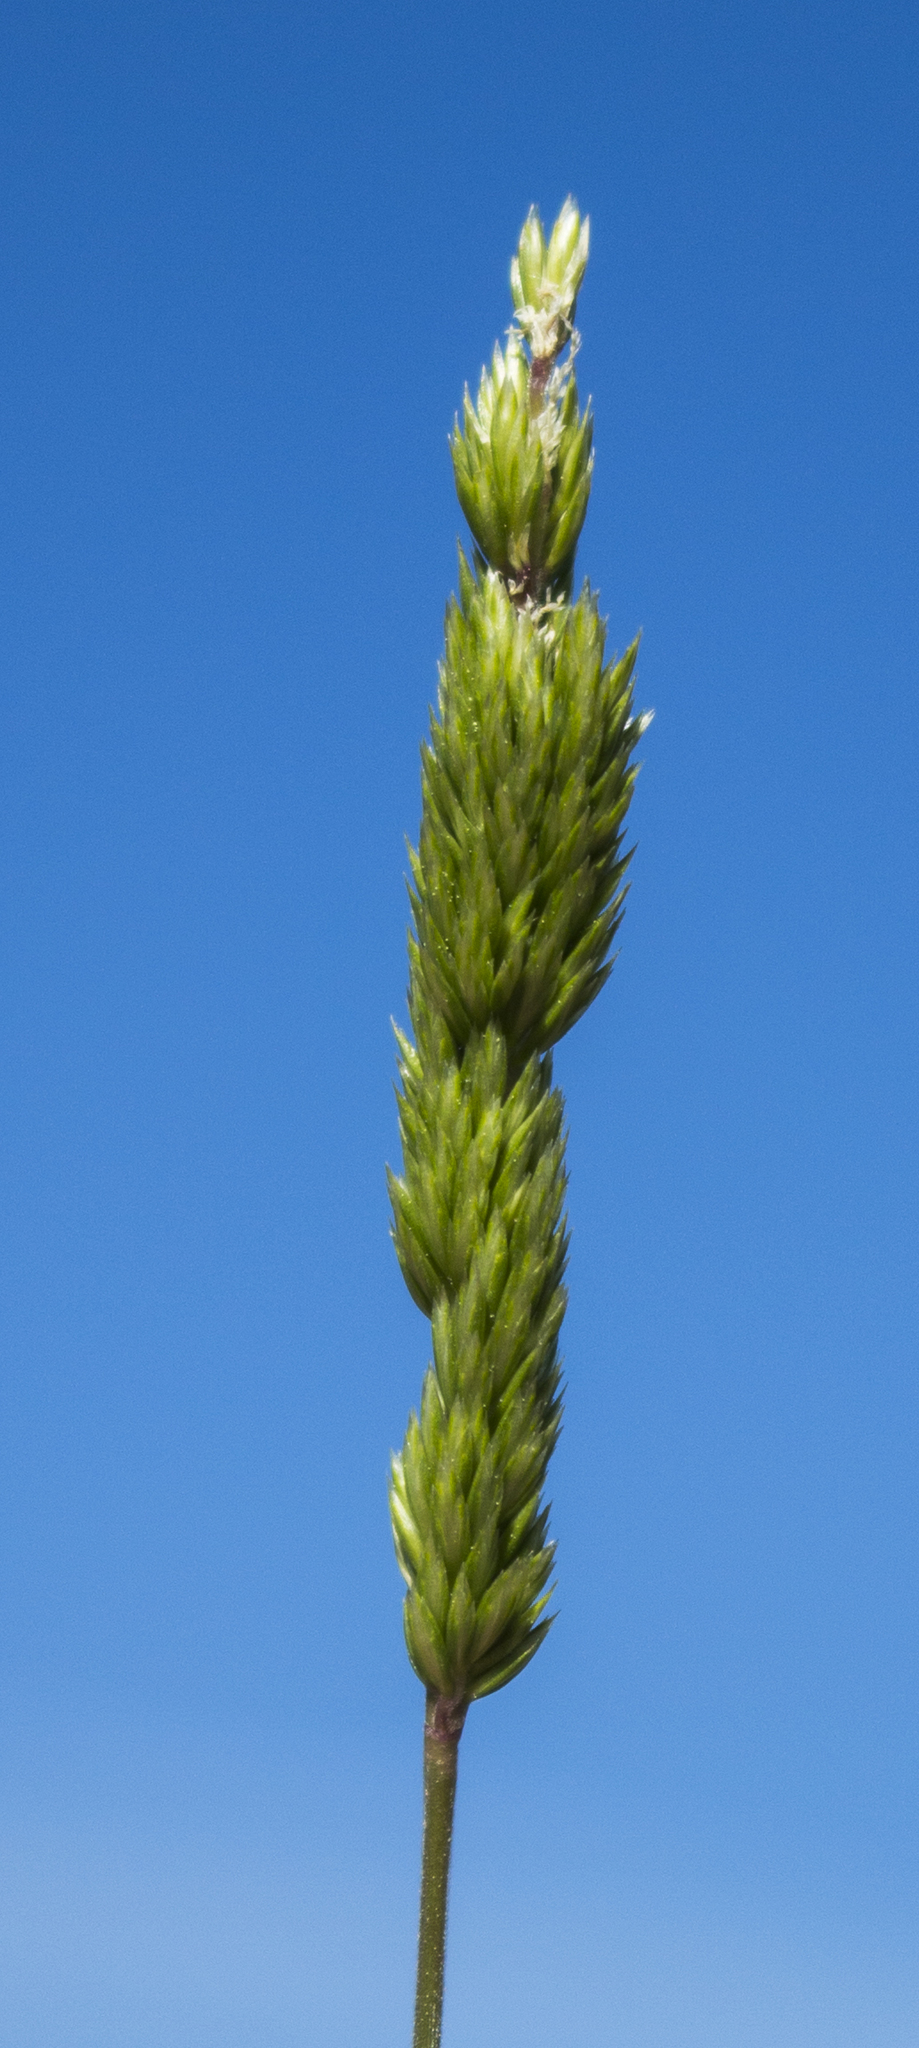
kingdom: Plantae
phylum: Tracheophyta
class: Liliopsida
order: Poales
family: Poaceae
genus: Koeleria
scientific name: Koeleria macrantha
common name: Crested hair-grass
